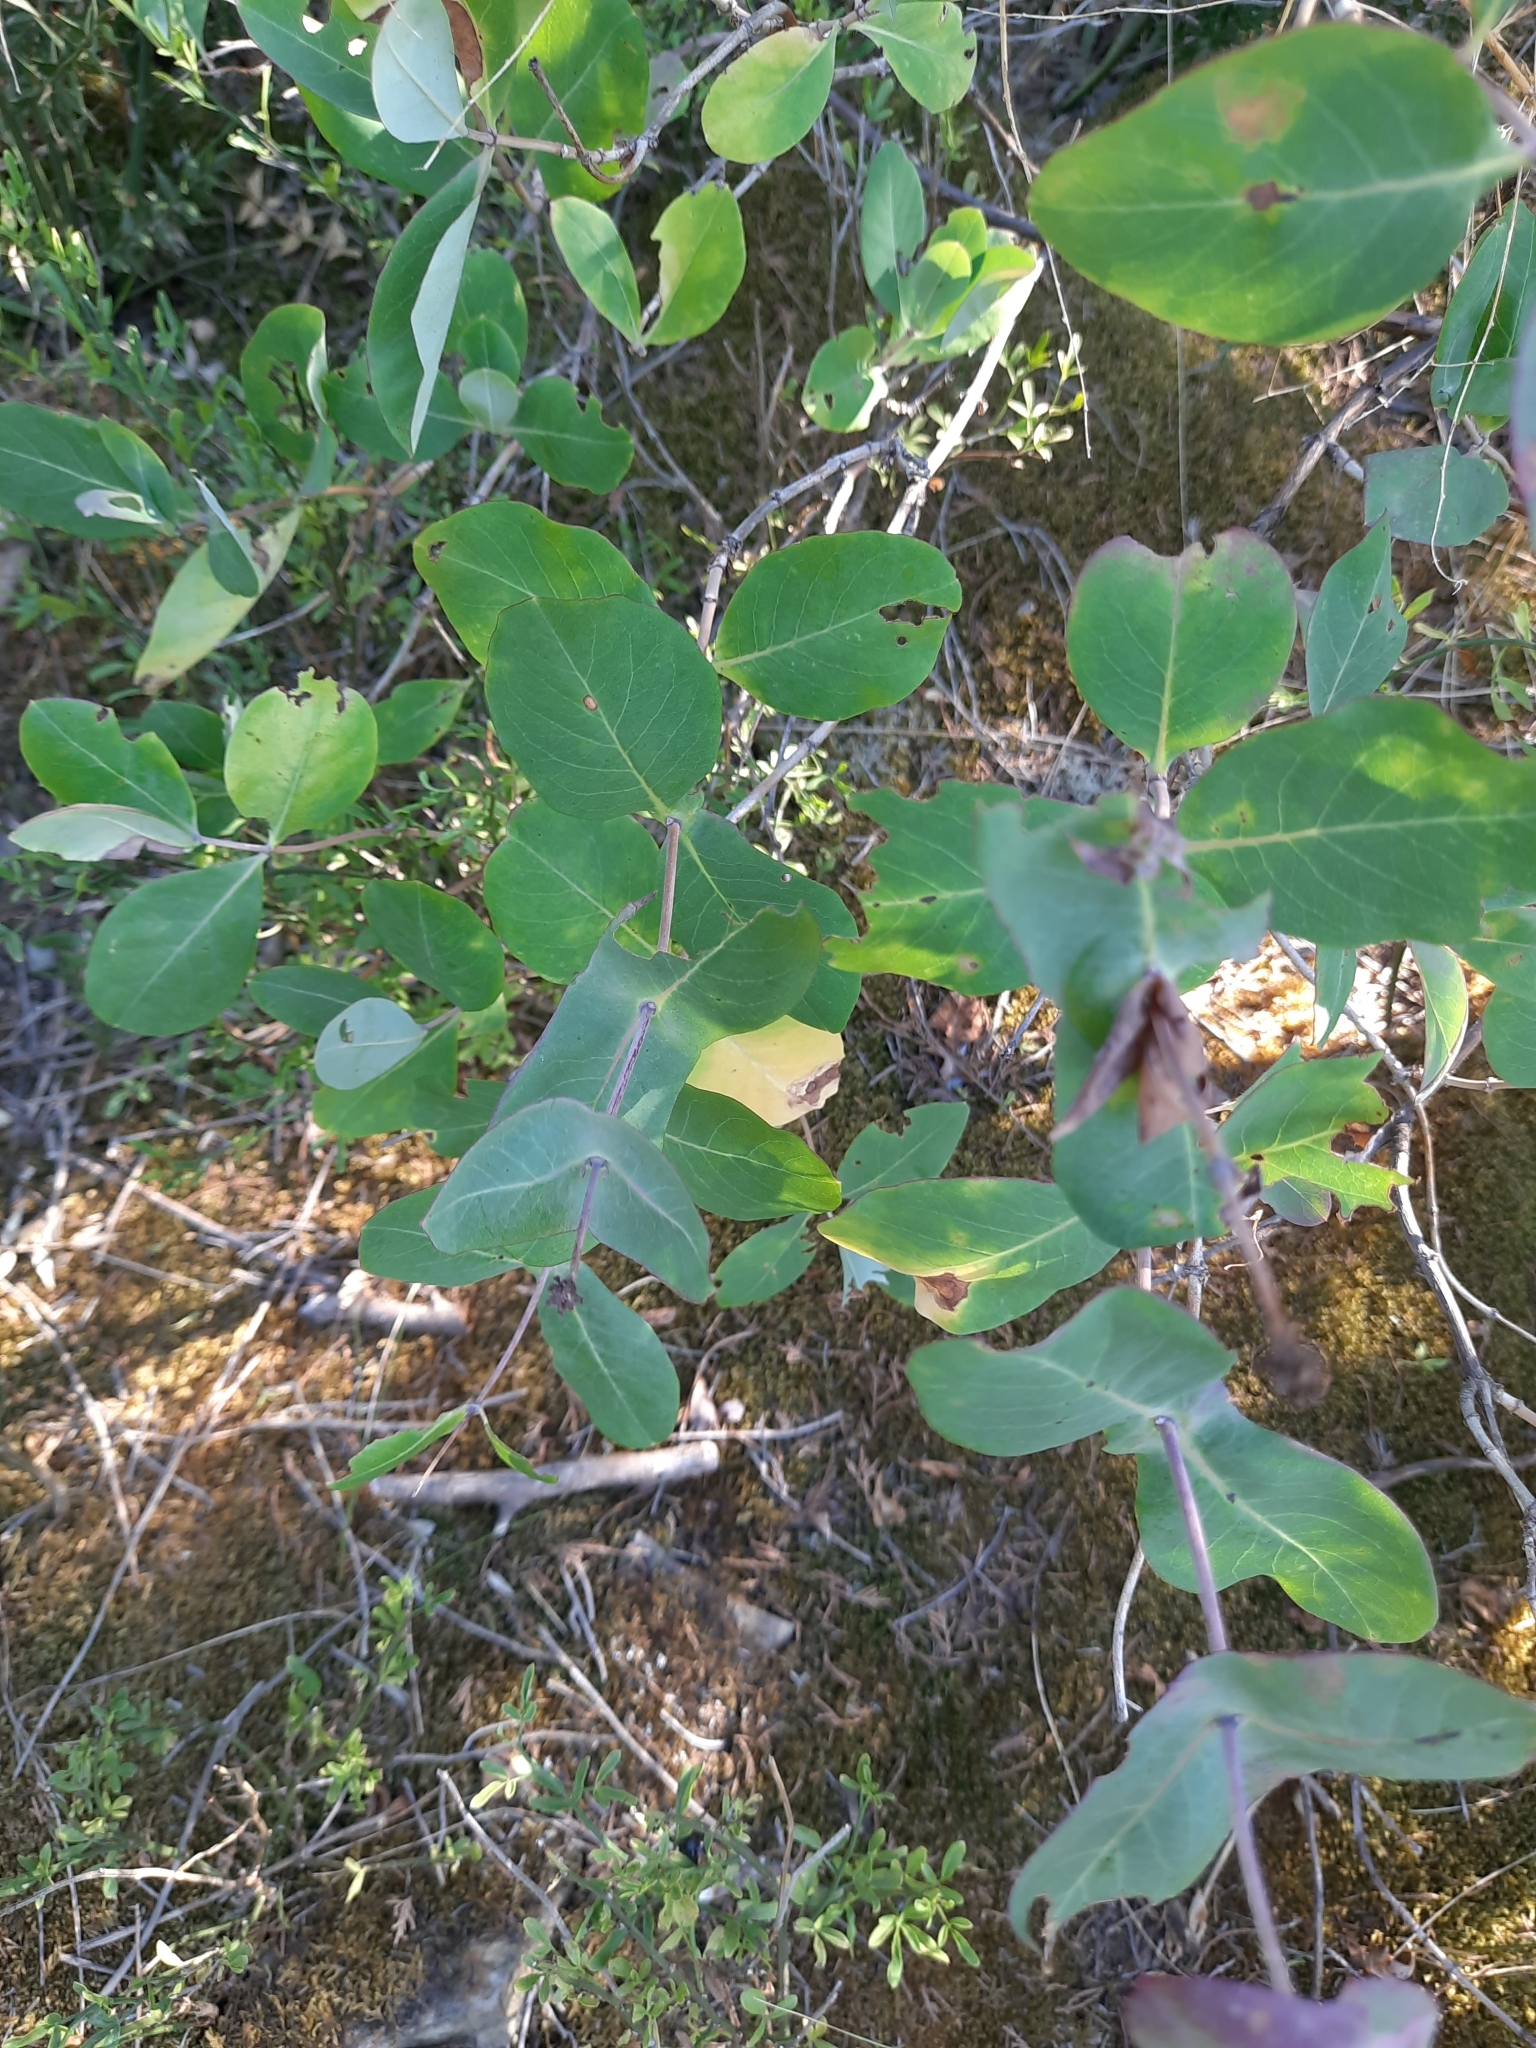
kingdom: Plantae
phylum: Tracheophyta
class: Magnoliopsida
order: Dipsacales
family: Caprifoliaceae
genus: Lonicera
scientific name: Lonicera etrusca
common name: Etruscan honeysuckle
